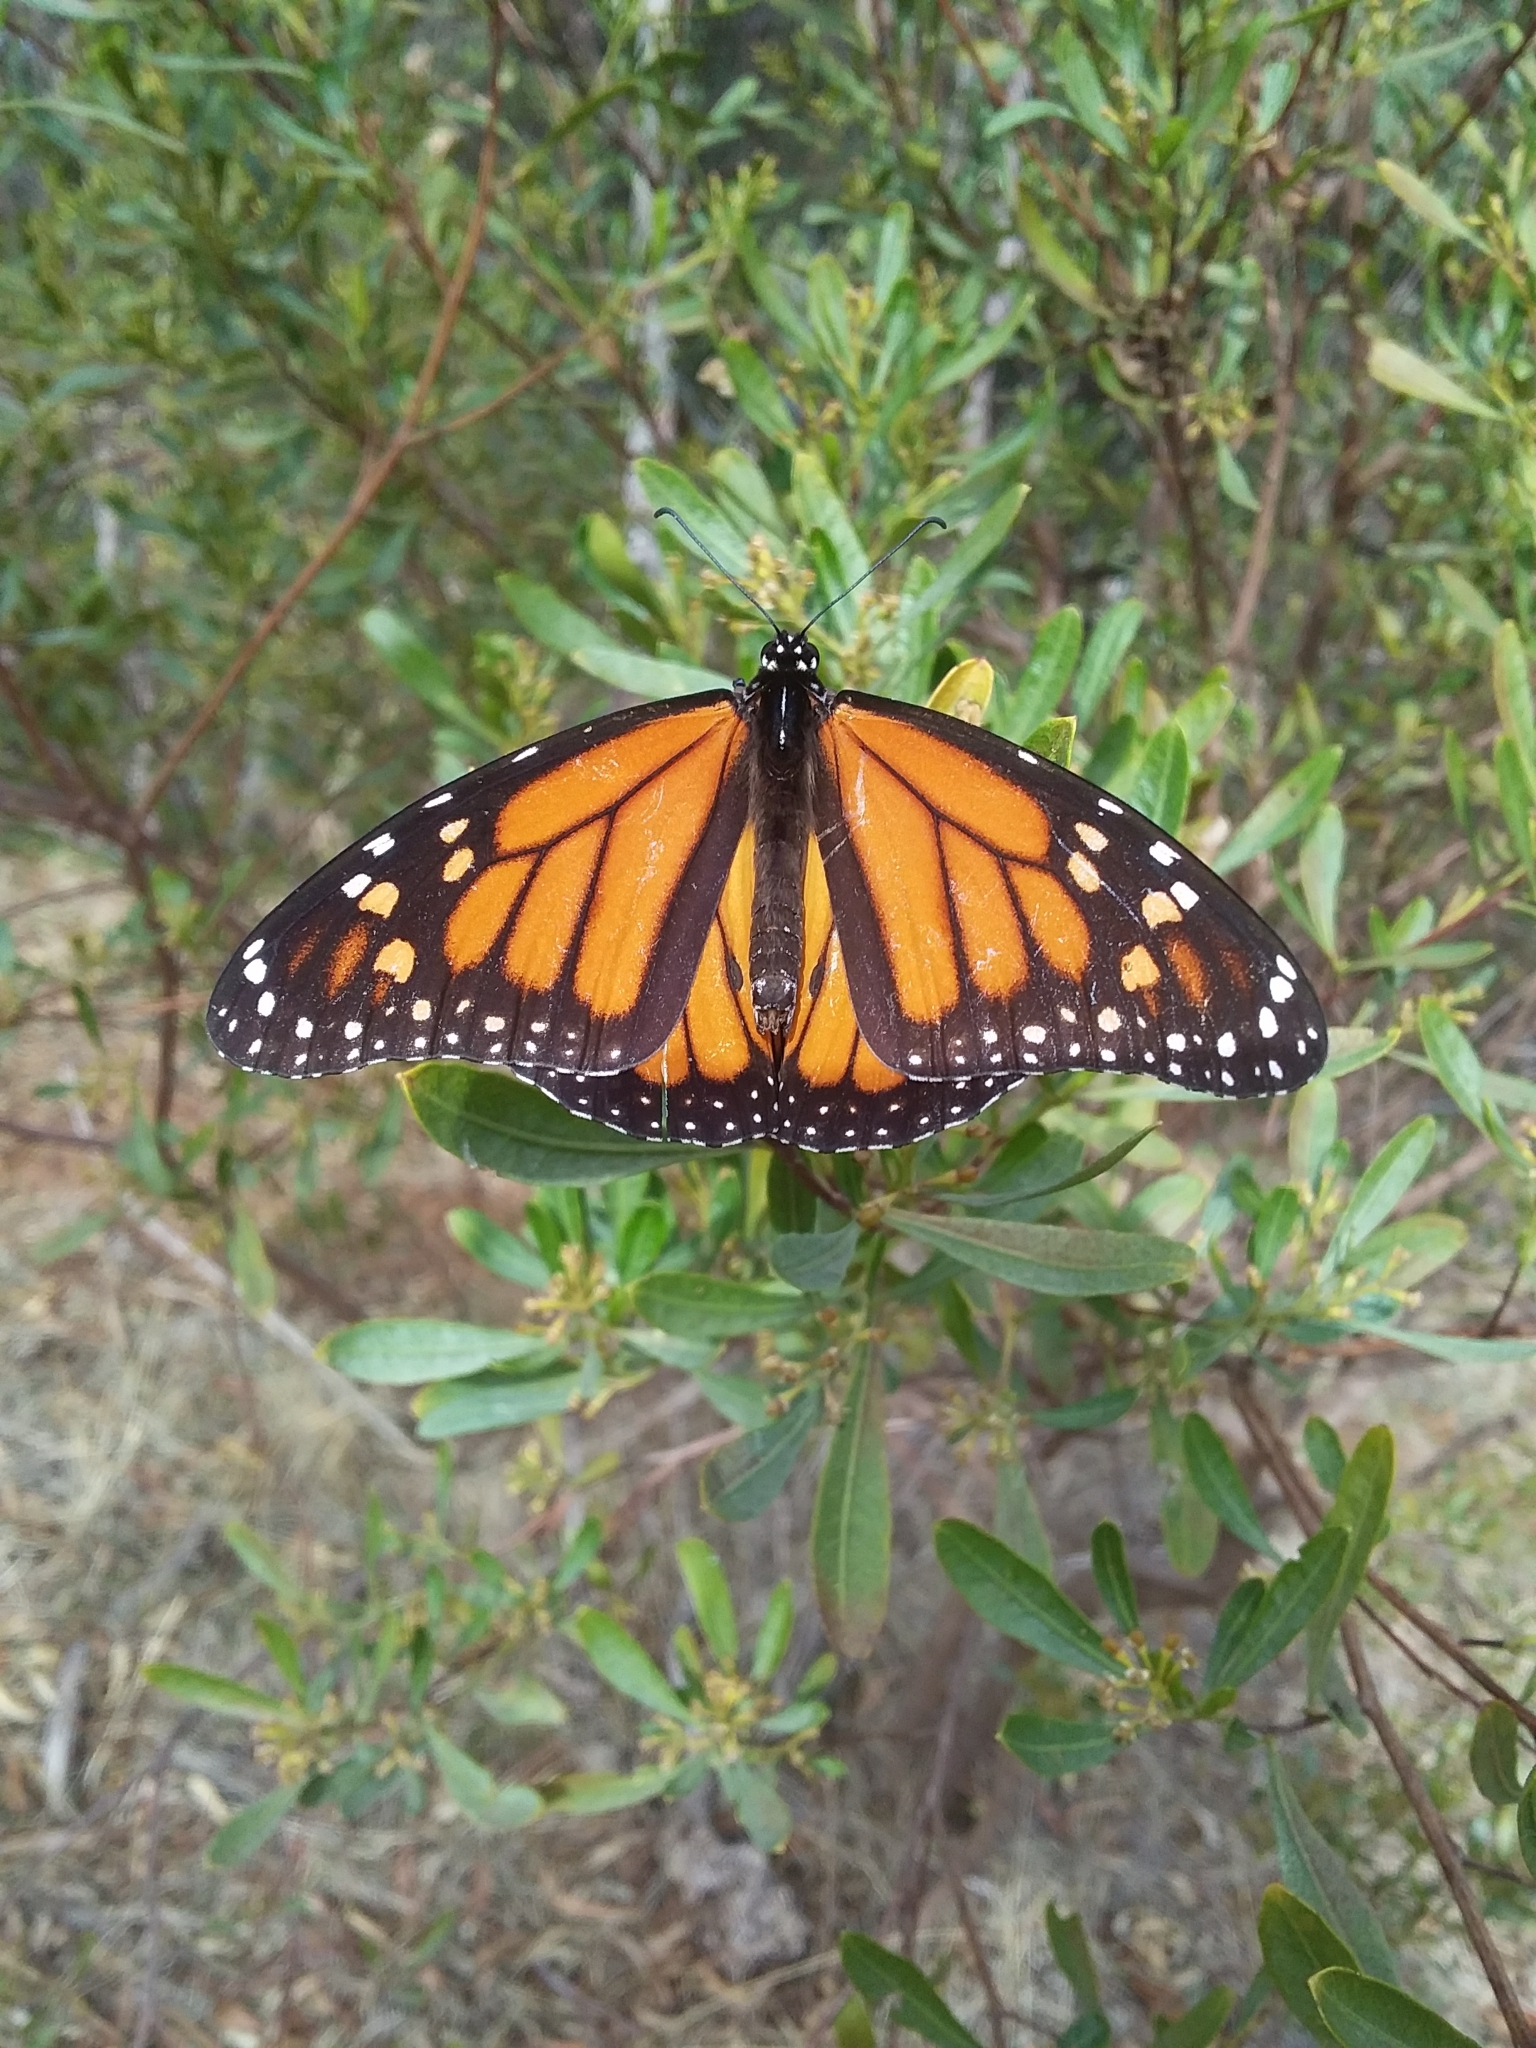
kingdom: Animalia
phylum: Arthropoda
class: Insecta
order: Lepidoptera
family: Nymphalidae
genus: Danaus
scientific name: Danaus plexippus
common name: Monarch
